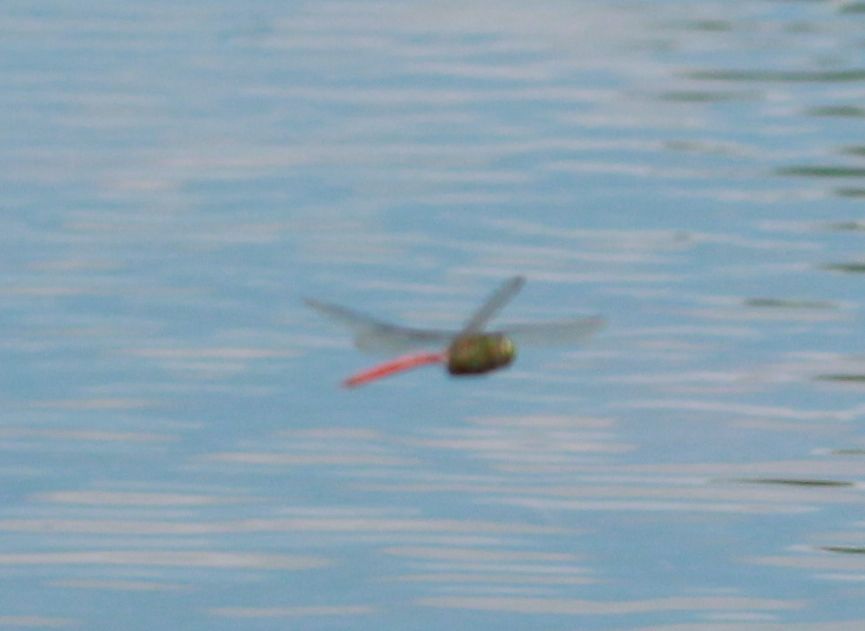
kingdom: Animalia
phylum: Arthropoda
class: Insecta
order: Odonata
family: Aeshnidae
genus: Anax
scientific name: Anax longipes
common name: Comet darner
